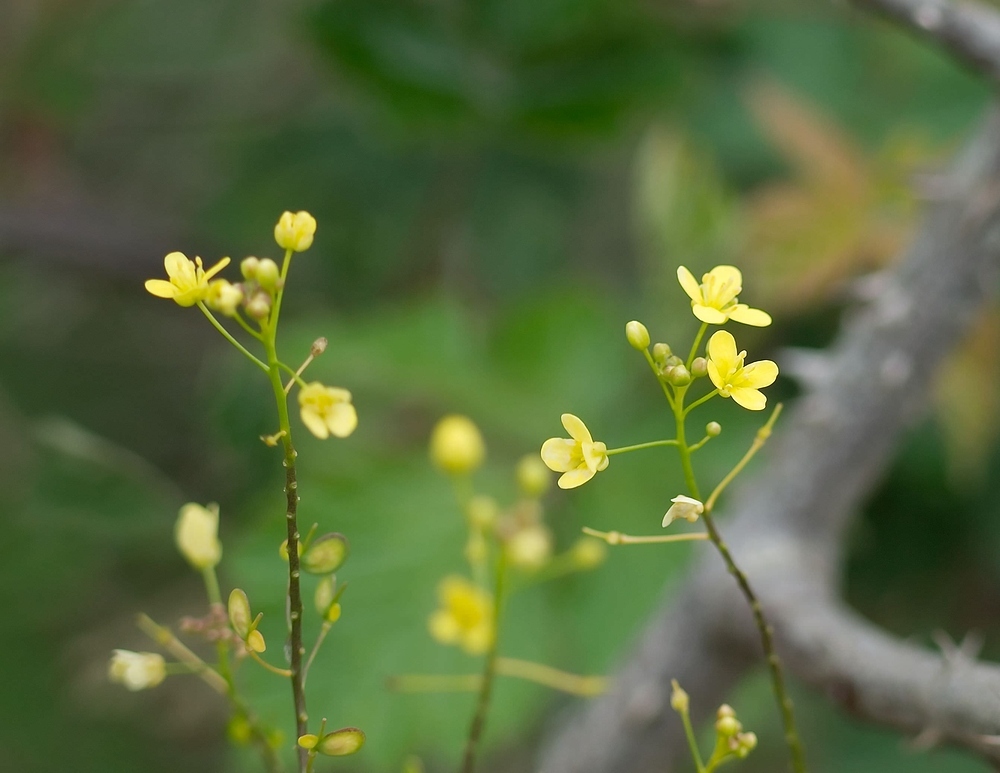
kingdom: Plantae
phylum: Tracheophyta
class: Magnoliopsida
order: Brassicales
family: Brassicaceae
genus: Biscutella
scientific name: Biscutella laevigata
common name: Buckler mustard
